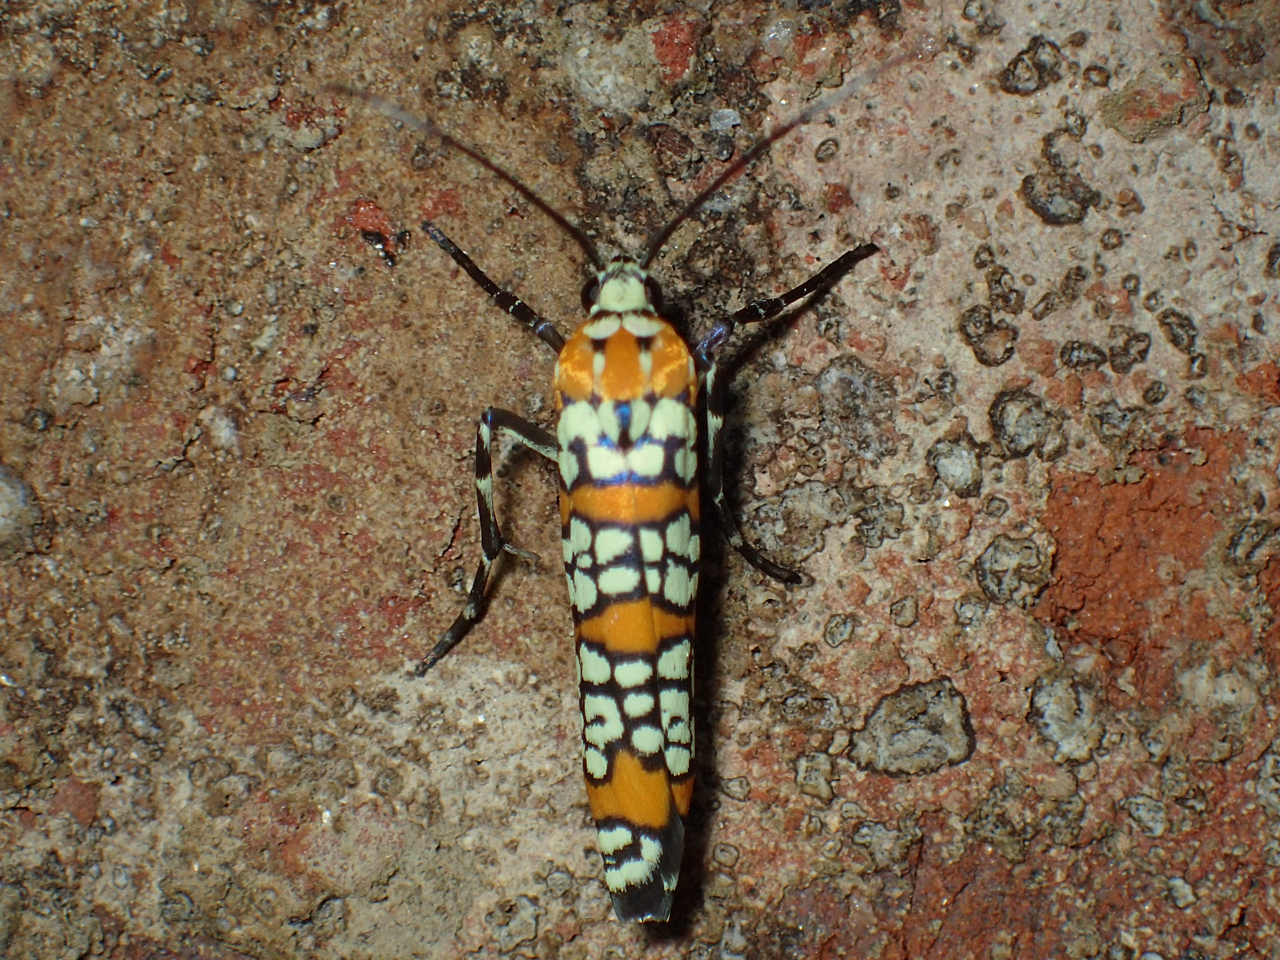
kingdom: Animalia
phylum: Arthropoda
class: Insecta
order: Lepidoptera
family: Attevidae
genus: Atteva
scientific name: Atteva punctella
